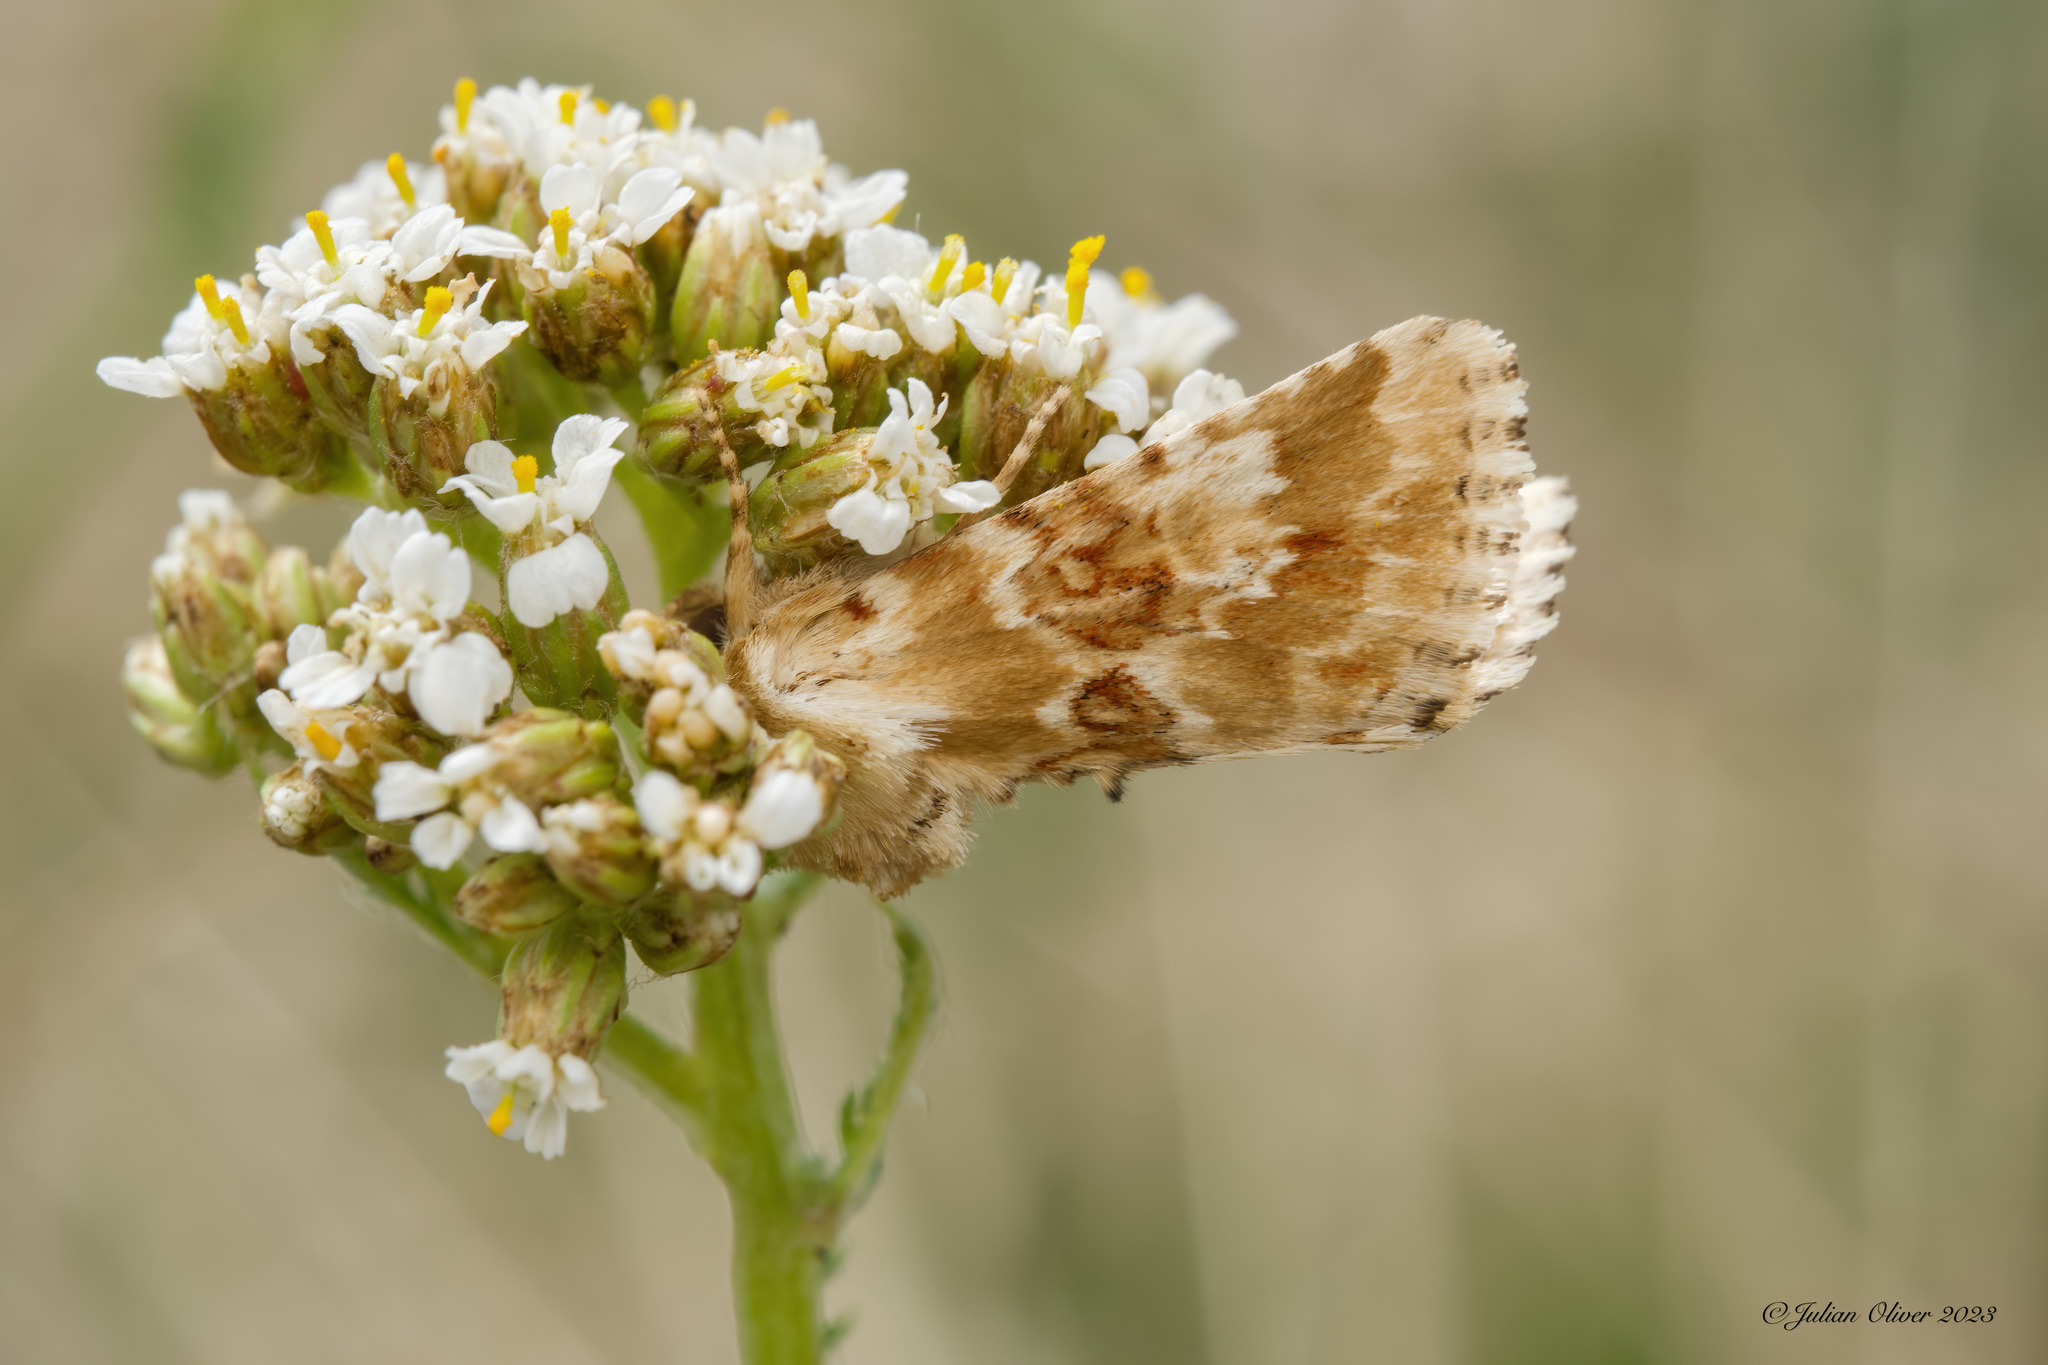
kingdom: Animalia
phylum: Arthropoda
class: Insecta
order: Lepidoptera
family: Noctuidae
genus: Eremobia
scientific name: Eremobia ochroleuca
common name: Dusky sallow
